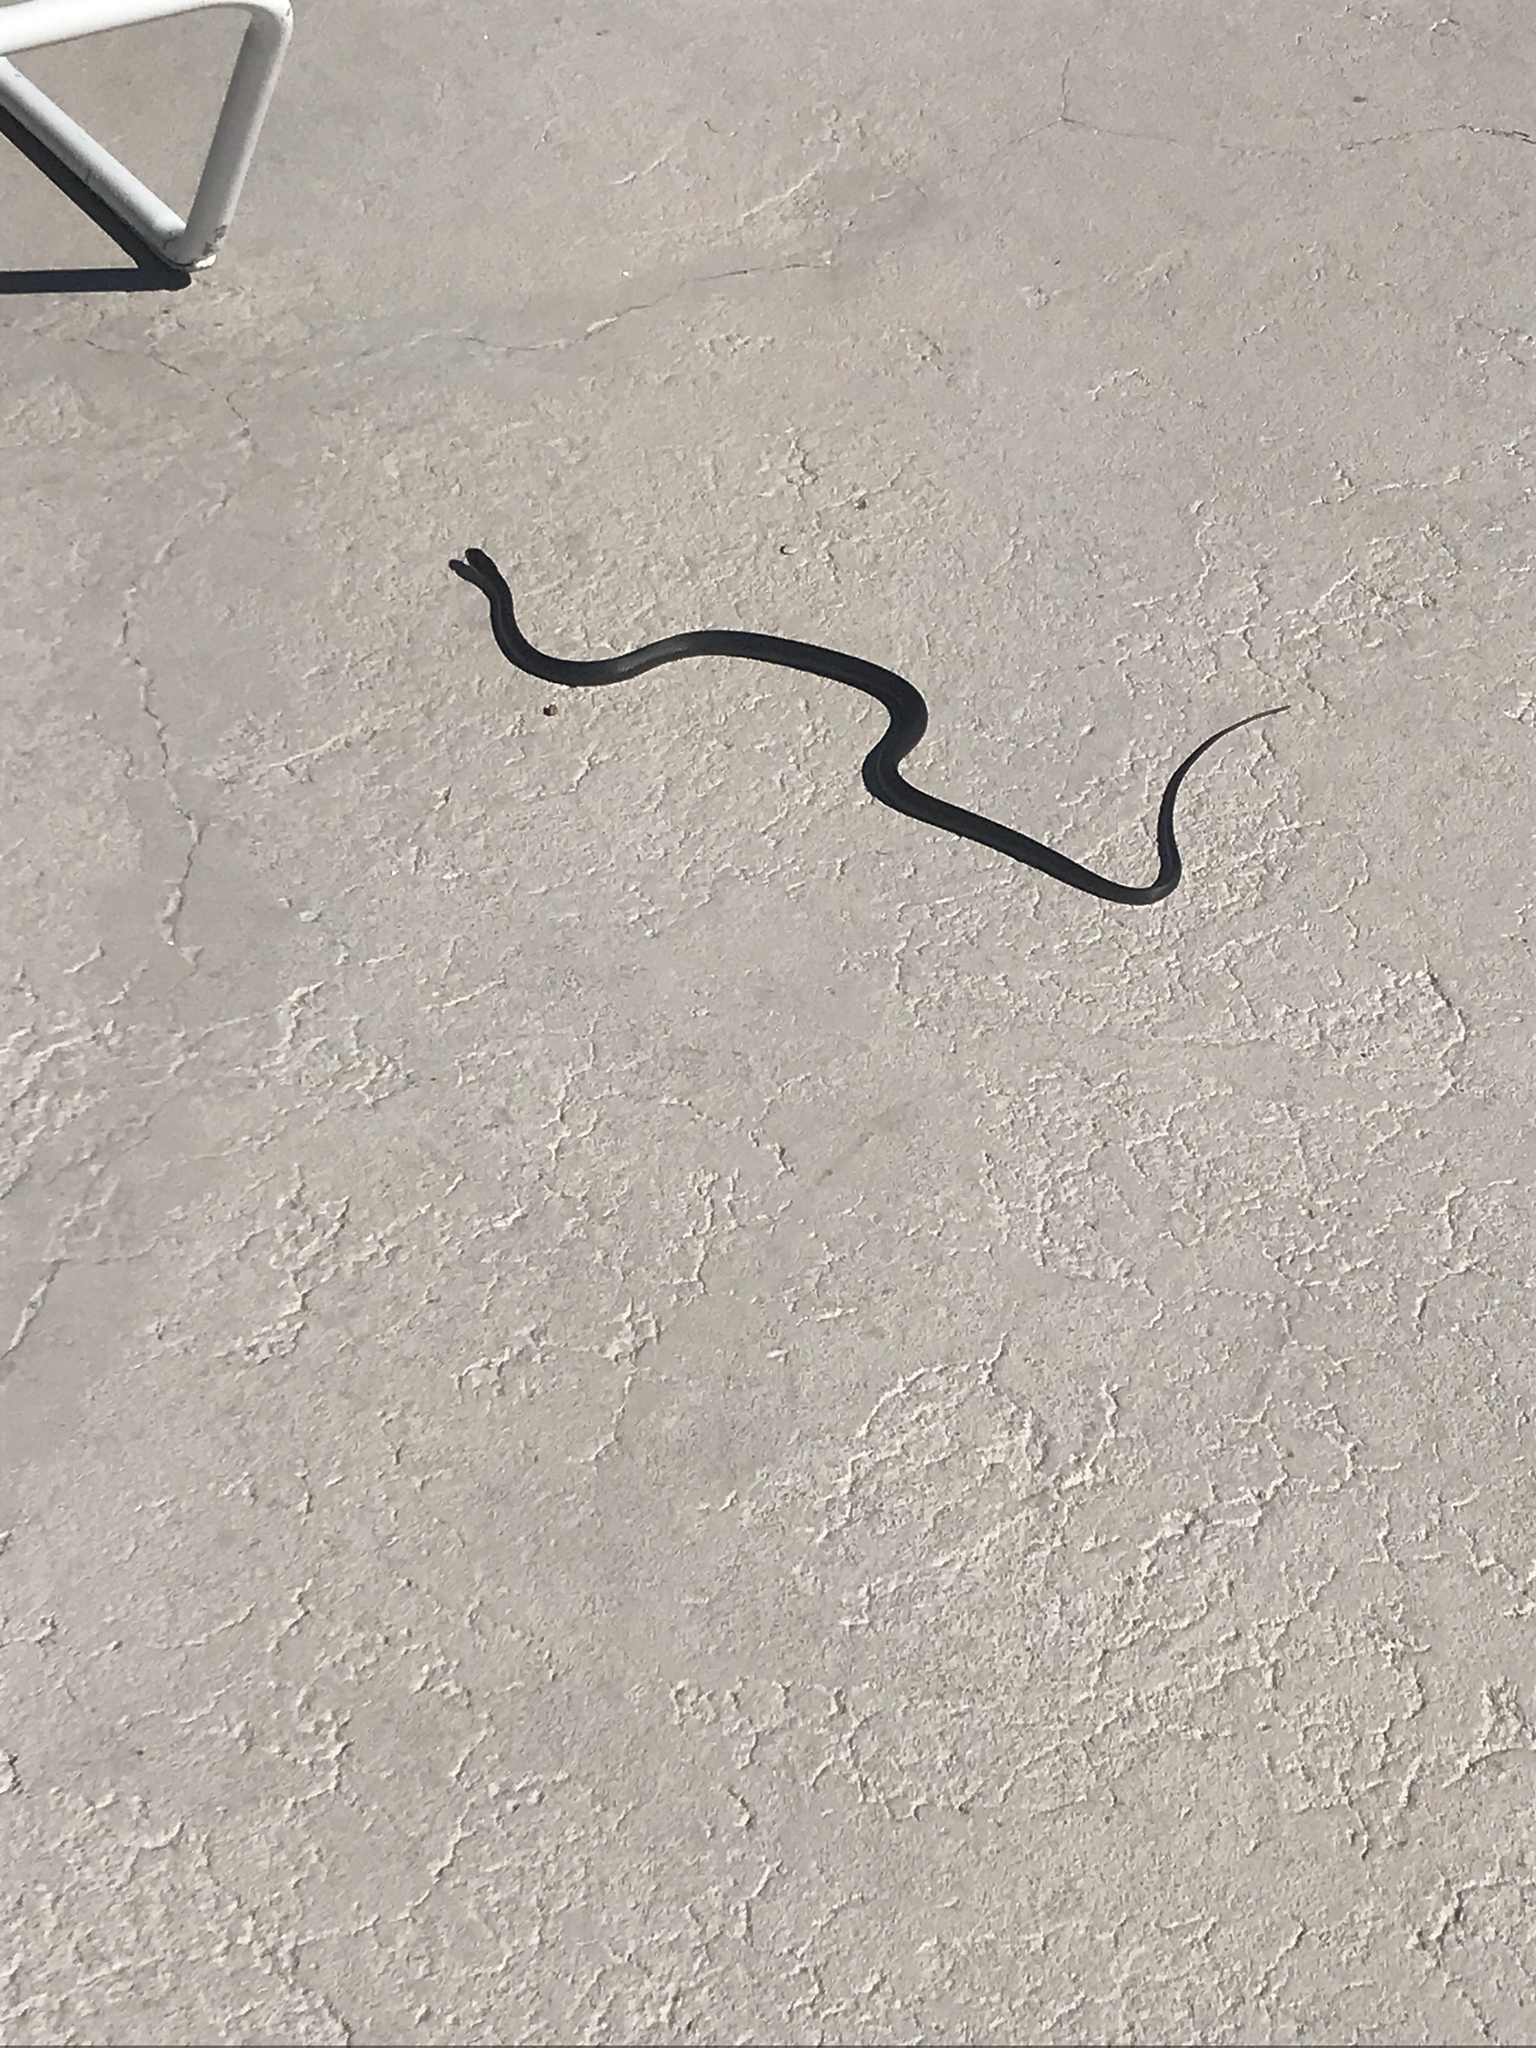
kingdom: Animalia
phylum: Chordata
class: Squamata
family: Colubridae
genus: Coluber
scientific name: Coluber constrictor
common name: Eastern racer
